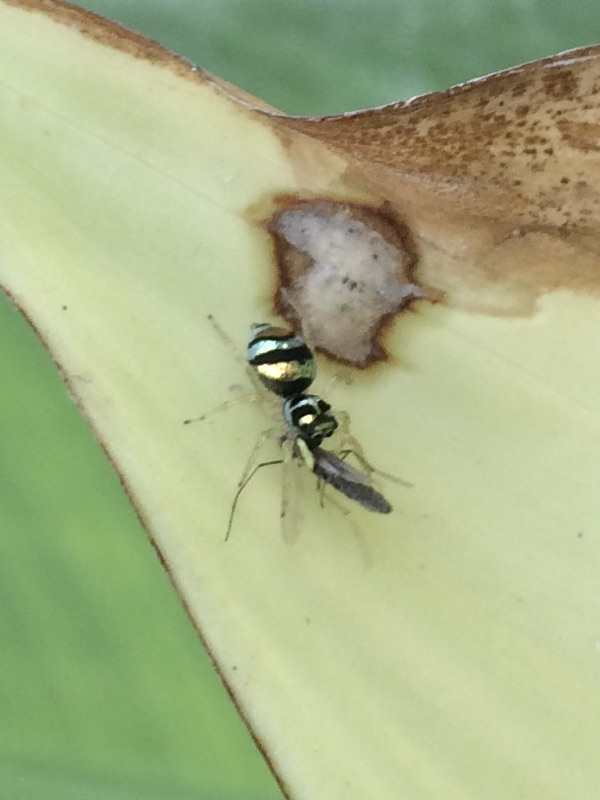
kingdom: Animalia
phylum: Arthropoda
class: Arachnida
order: Araneae
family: Salticidae
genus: Phintella
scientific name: Phintella vittata
